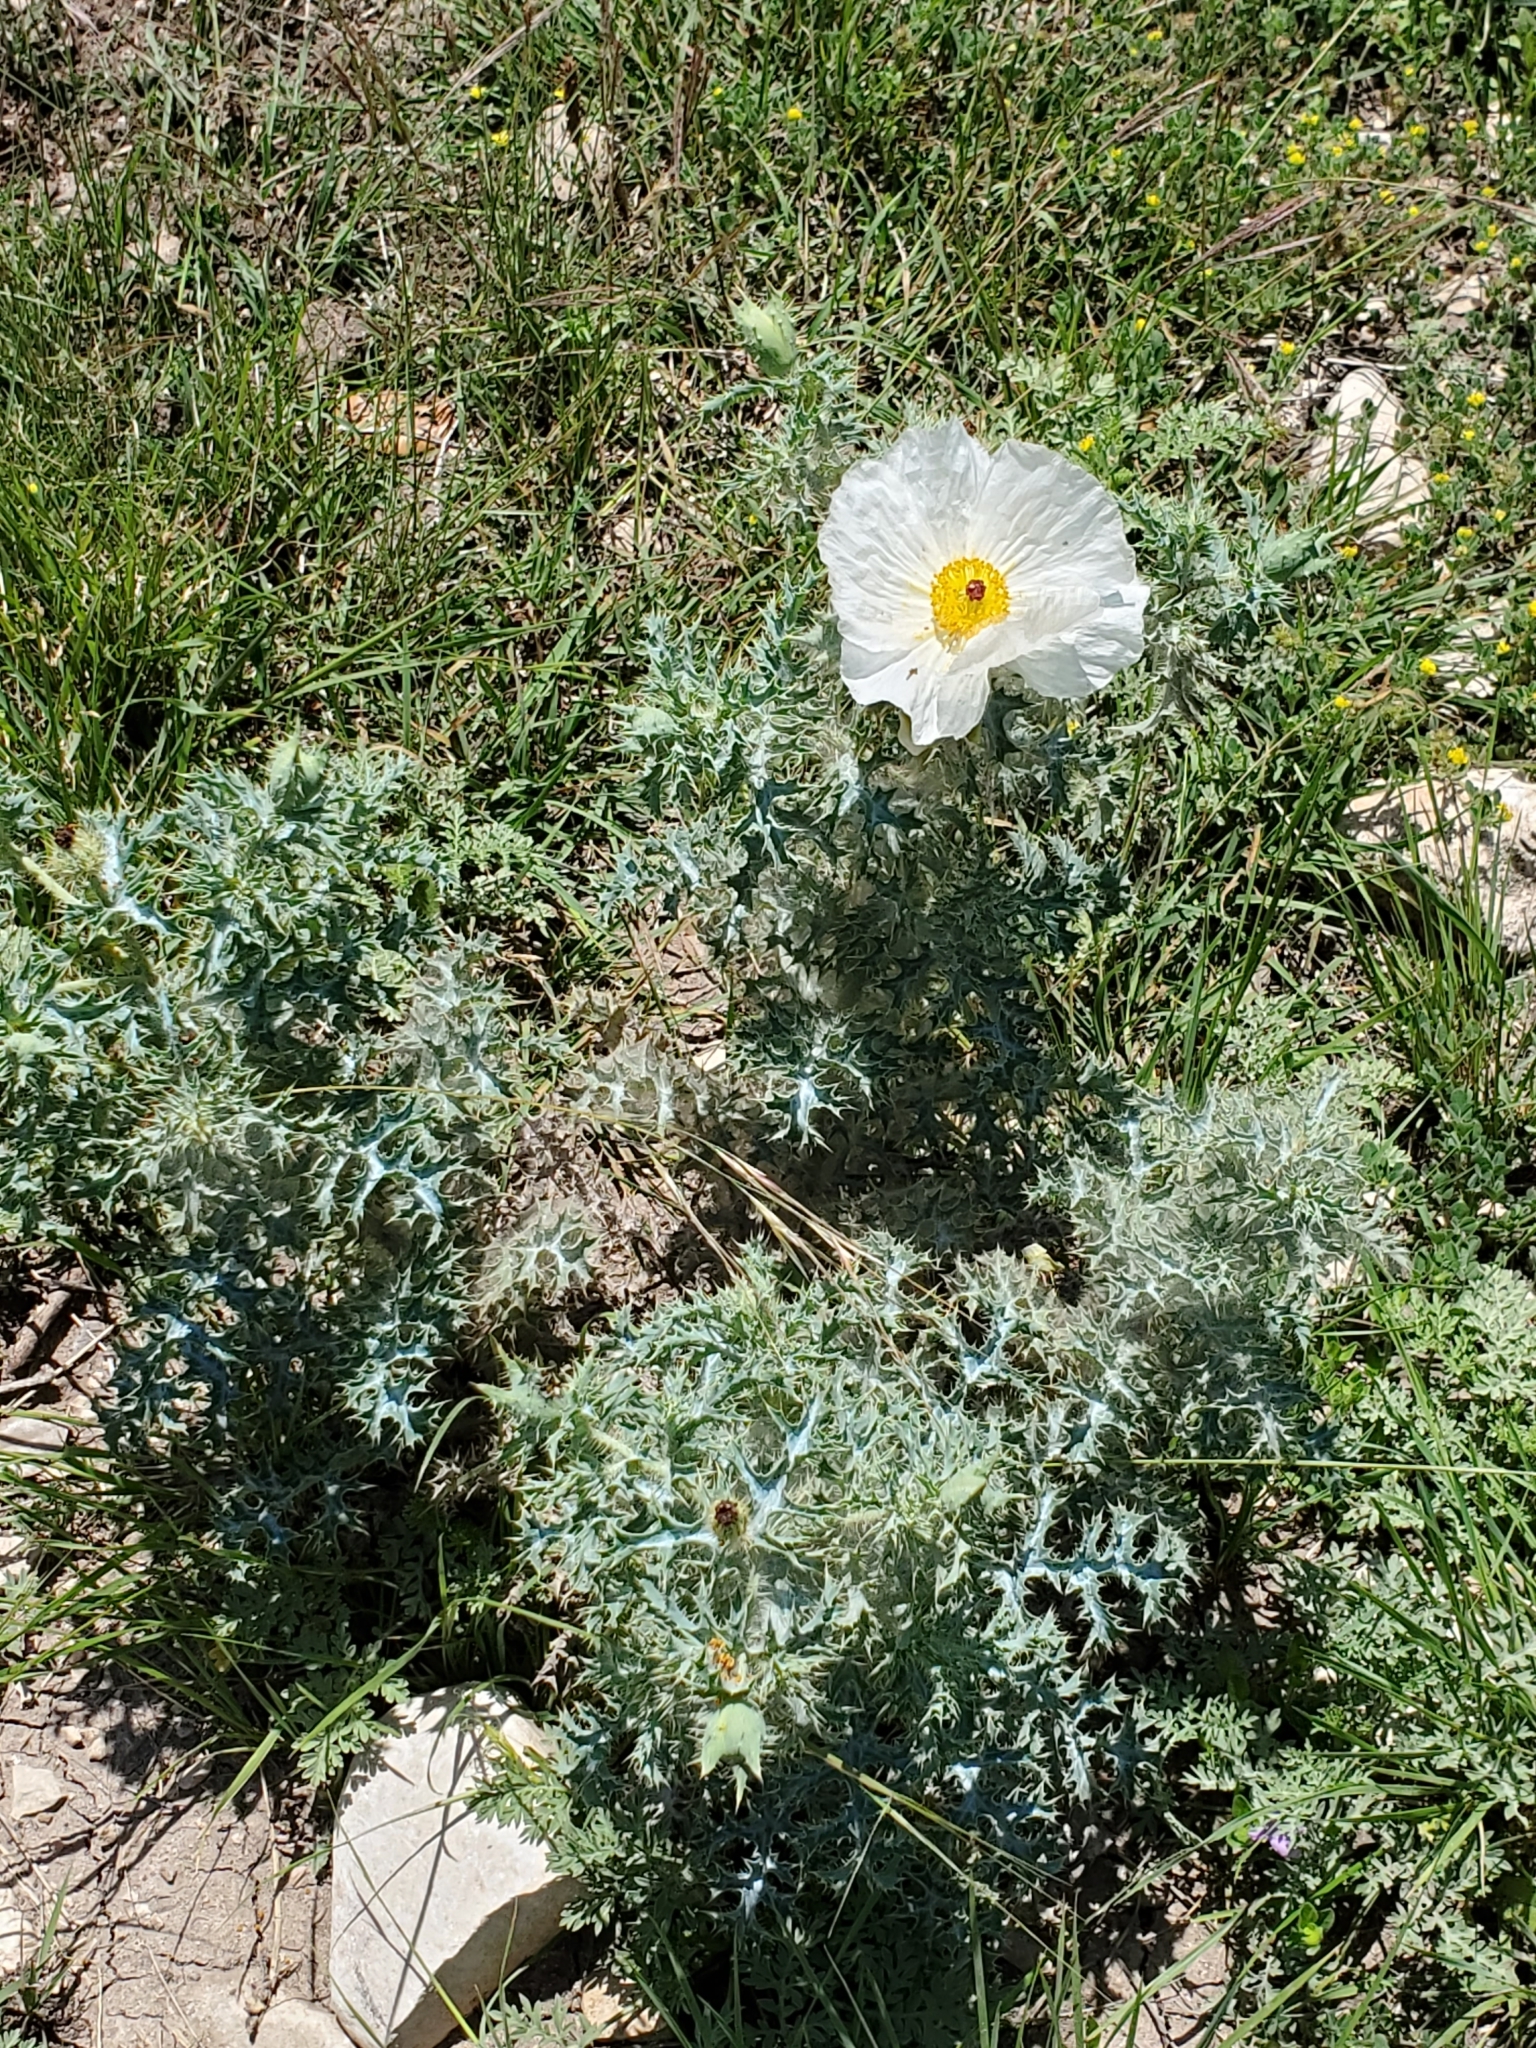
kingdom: Plantae
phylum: Tracheophyta
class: Magnoliopsida
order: Ranunculales
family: Papaveraceae
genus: Argemone
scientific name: Argemone albiflora
